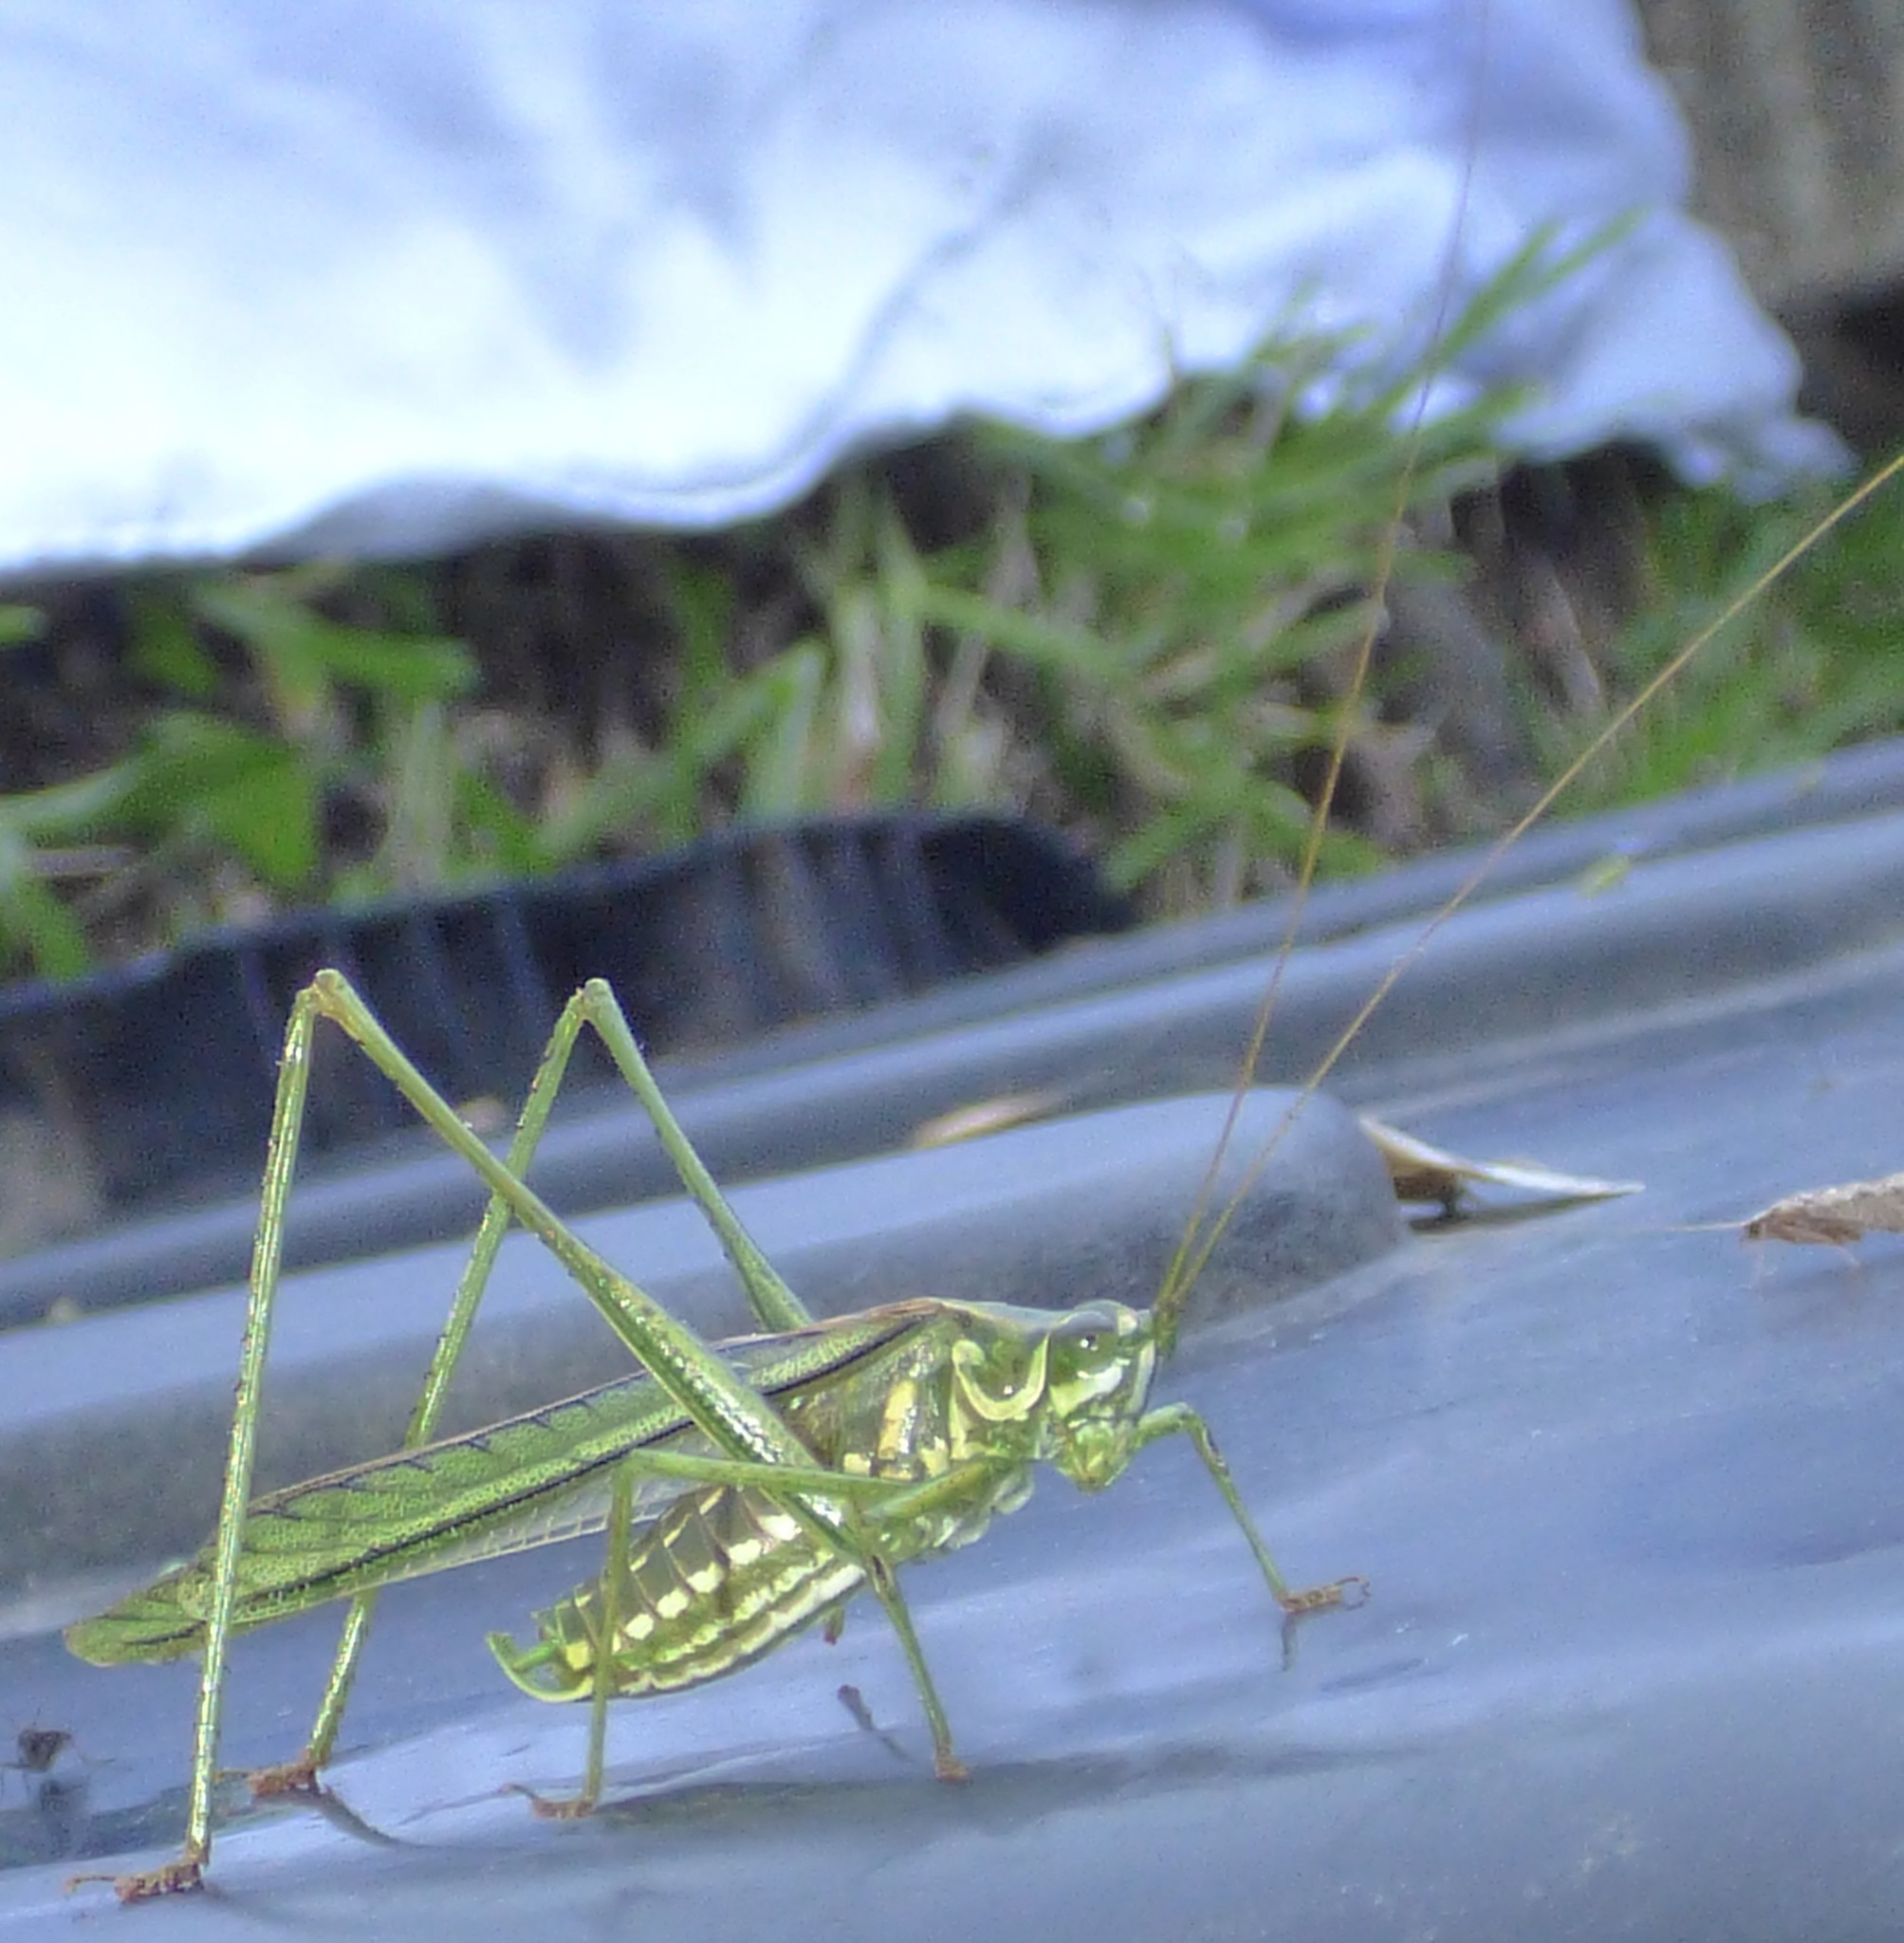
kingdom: Animalia
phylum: Arthropoda
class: Insecta
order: Orthoptera
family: Tettigoniidae
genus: Inscudderia
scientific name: Inscudderia walkeri
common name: Eastern cypress katydid
